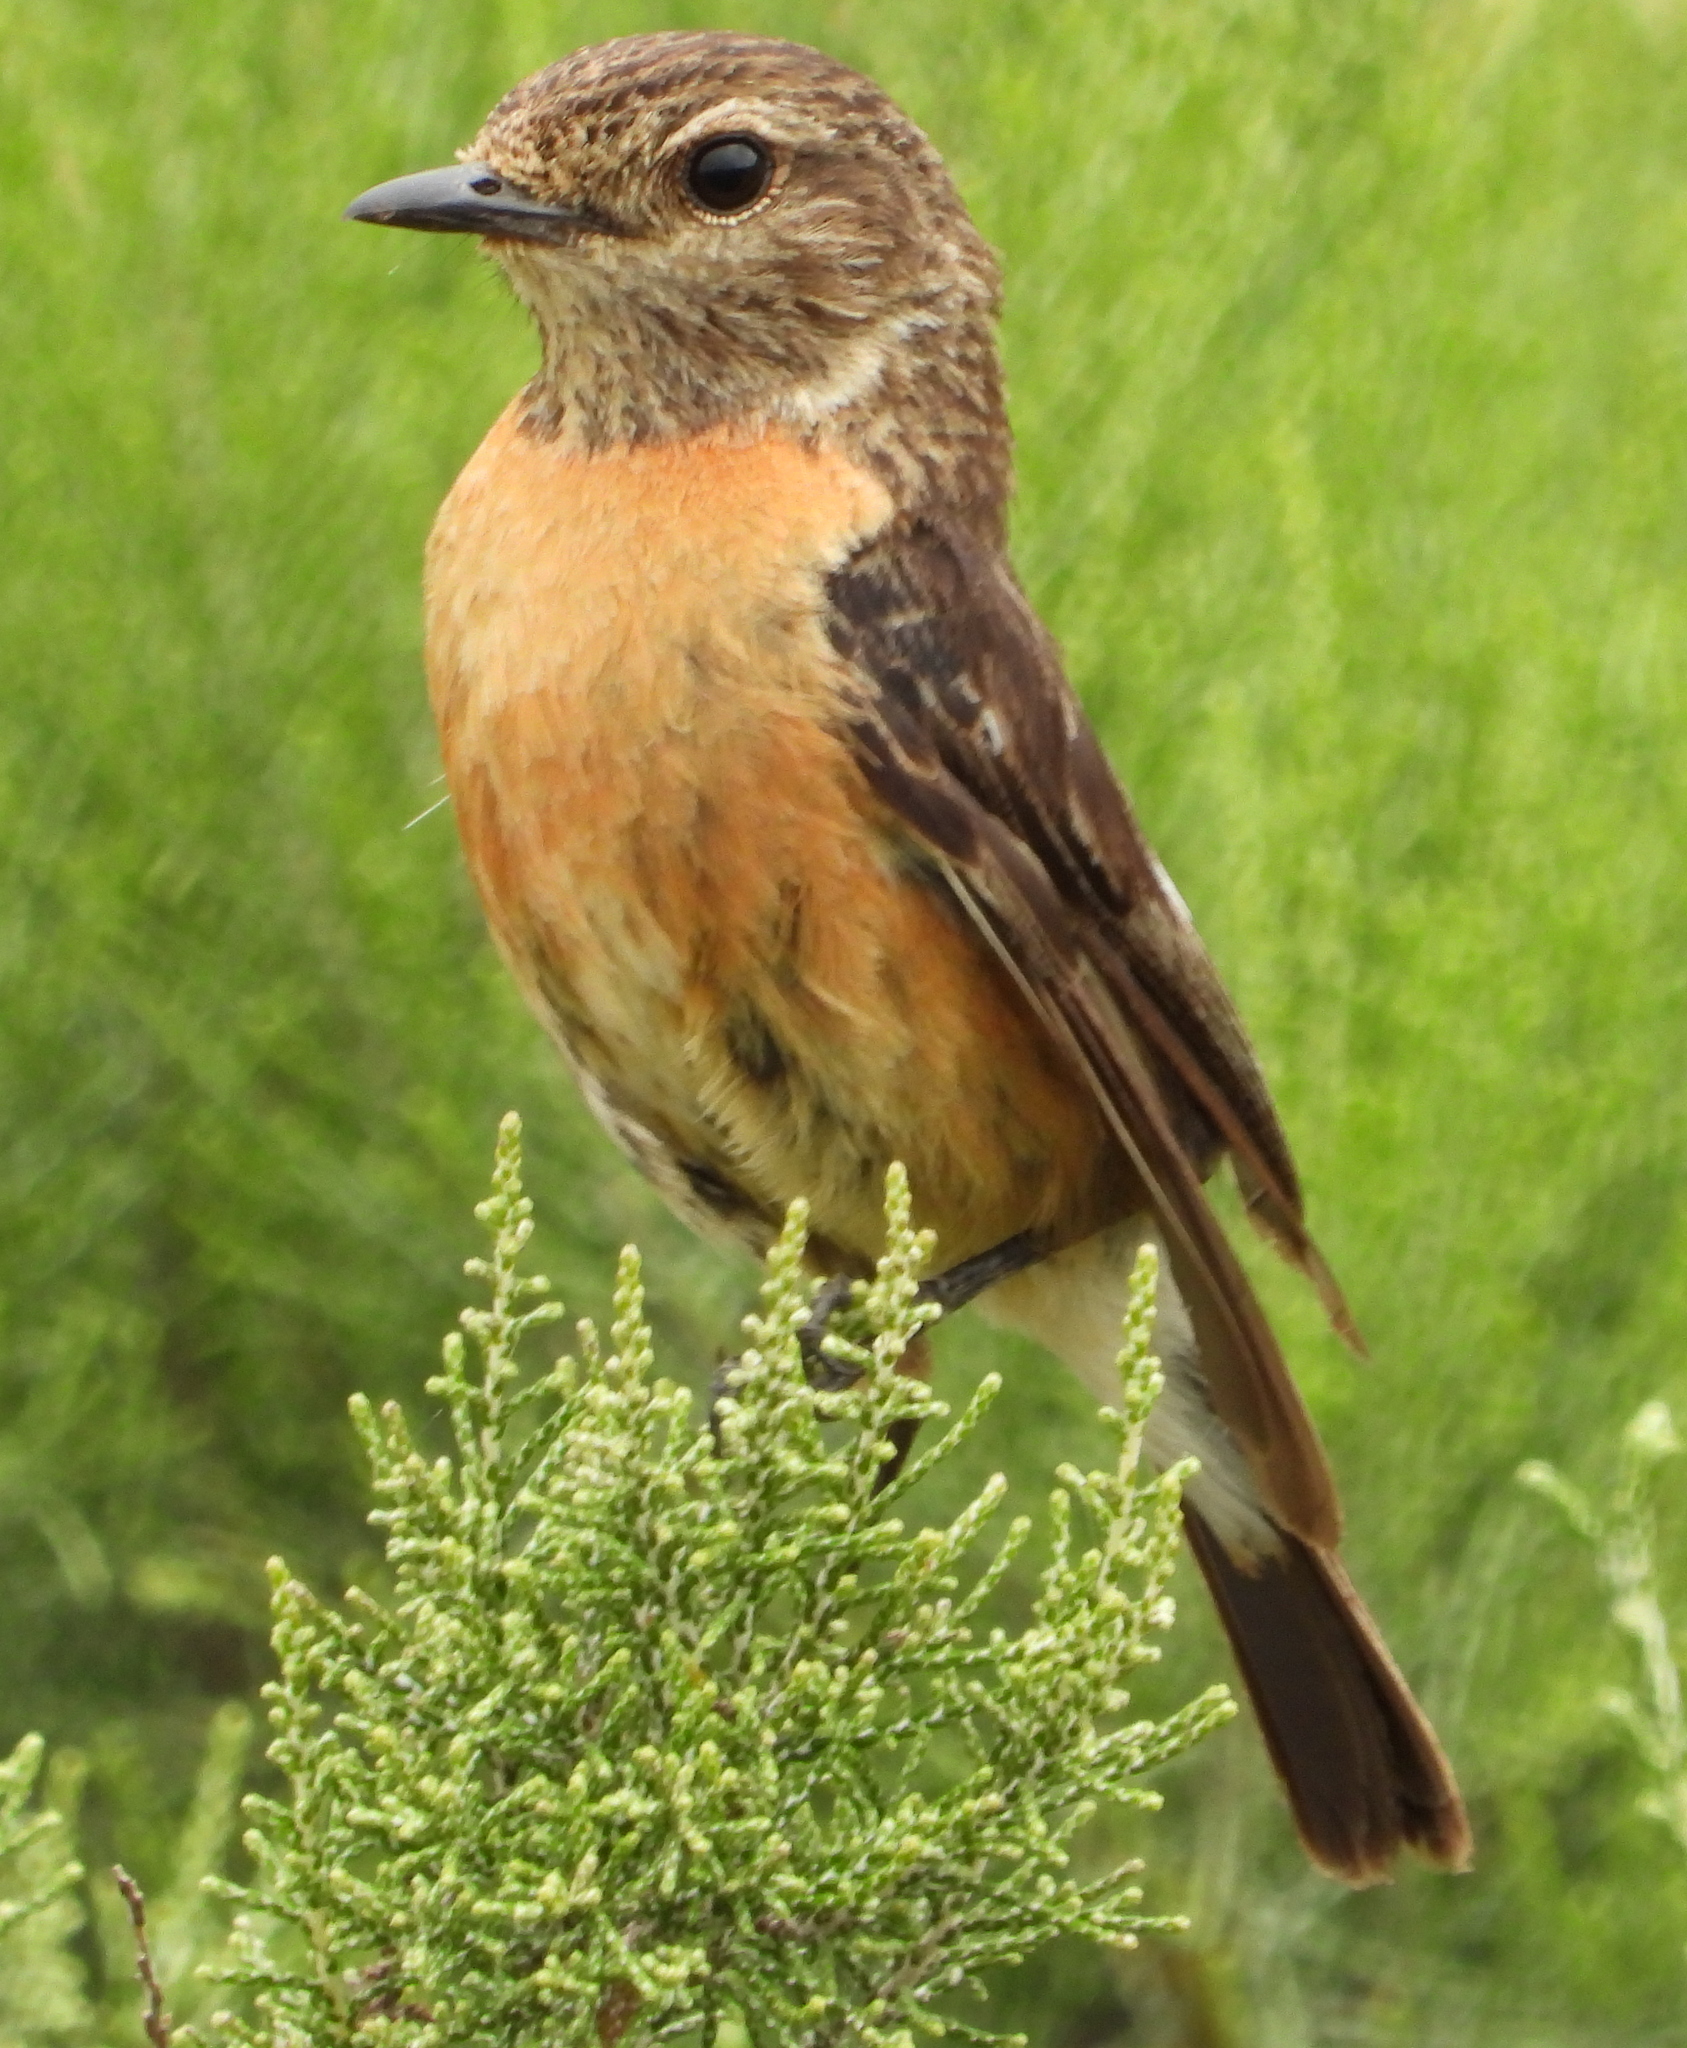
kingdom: Animalia
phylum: Chordata
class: Aves
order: Passeriformes
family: Muscicapidae
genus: Saxicola
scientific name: Saxicola torquatus
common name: African stonechat
